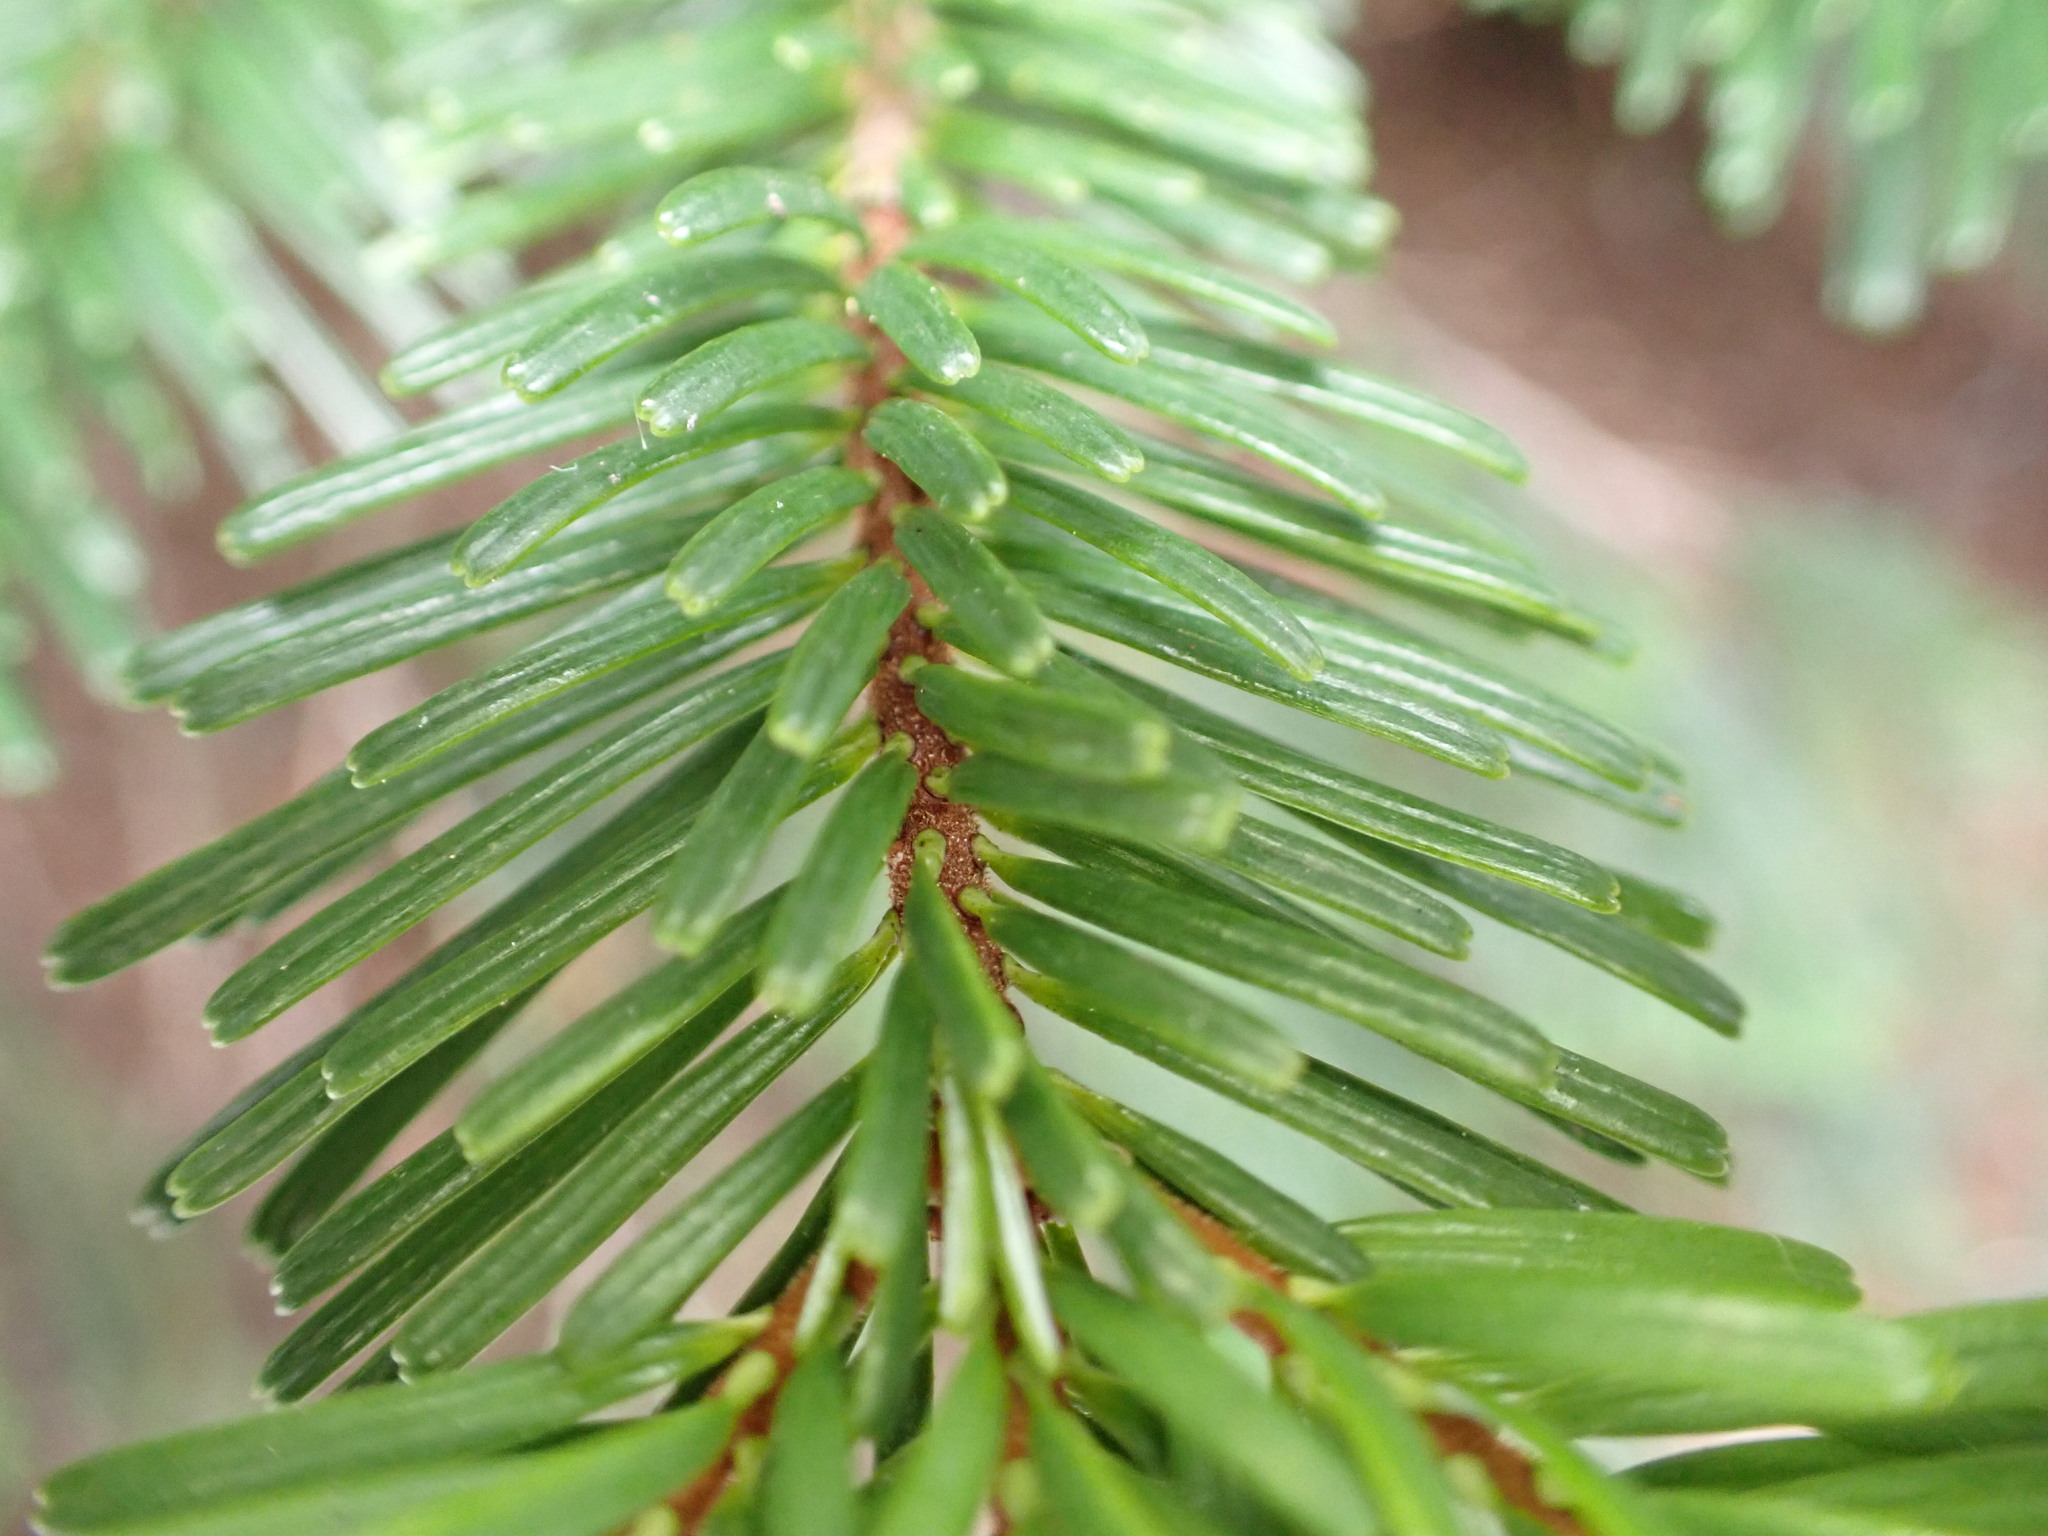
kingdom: Plantae
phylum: Tracheophyta
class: Pinopsida
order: Pinales
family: Pinaceae
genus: Abies
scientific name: Abies amabilis
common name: Pacific silver fir
